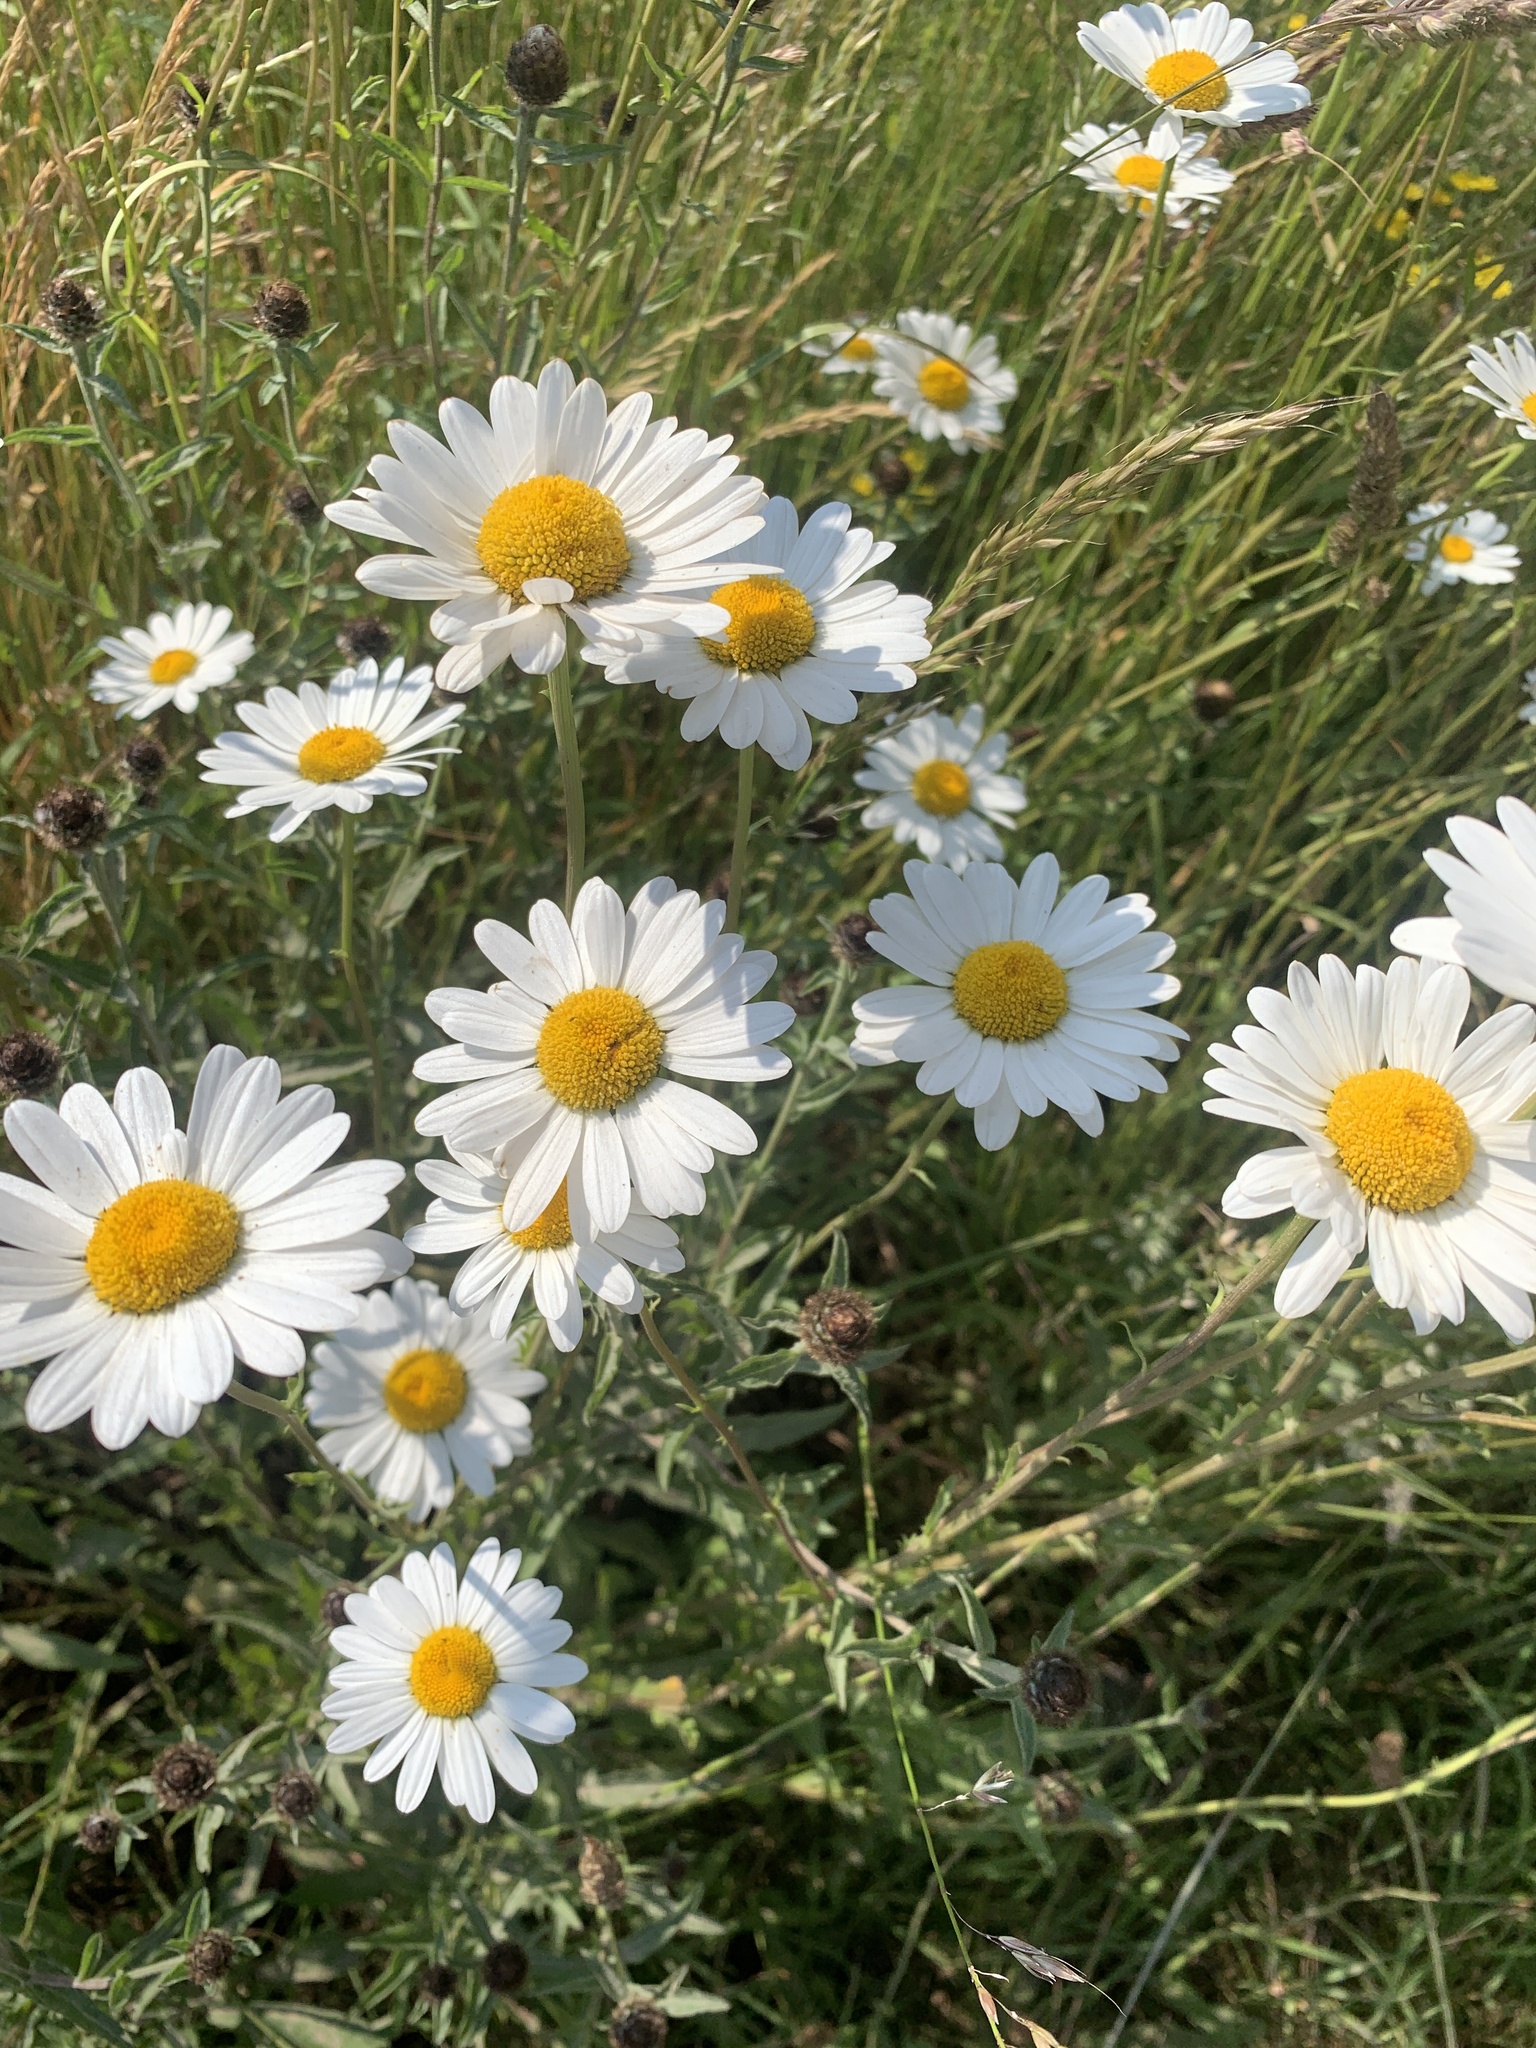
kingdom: Plantae
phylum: Tracheophyta
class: Magnoliopsida
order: Asterales
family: Asteraceae
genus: Leucanthemum
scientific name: Leucanthemum vulgare
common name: Oxeye daisy
